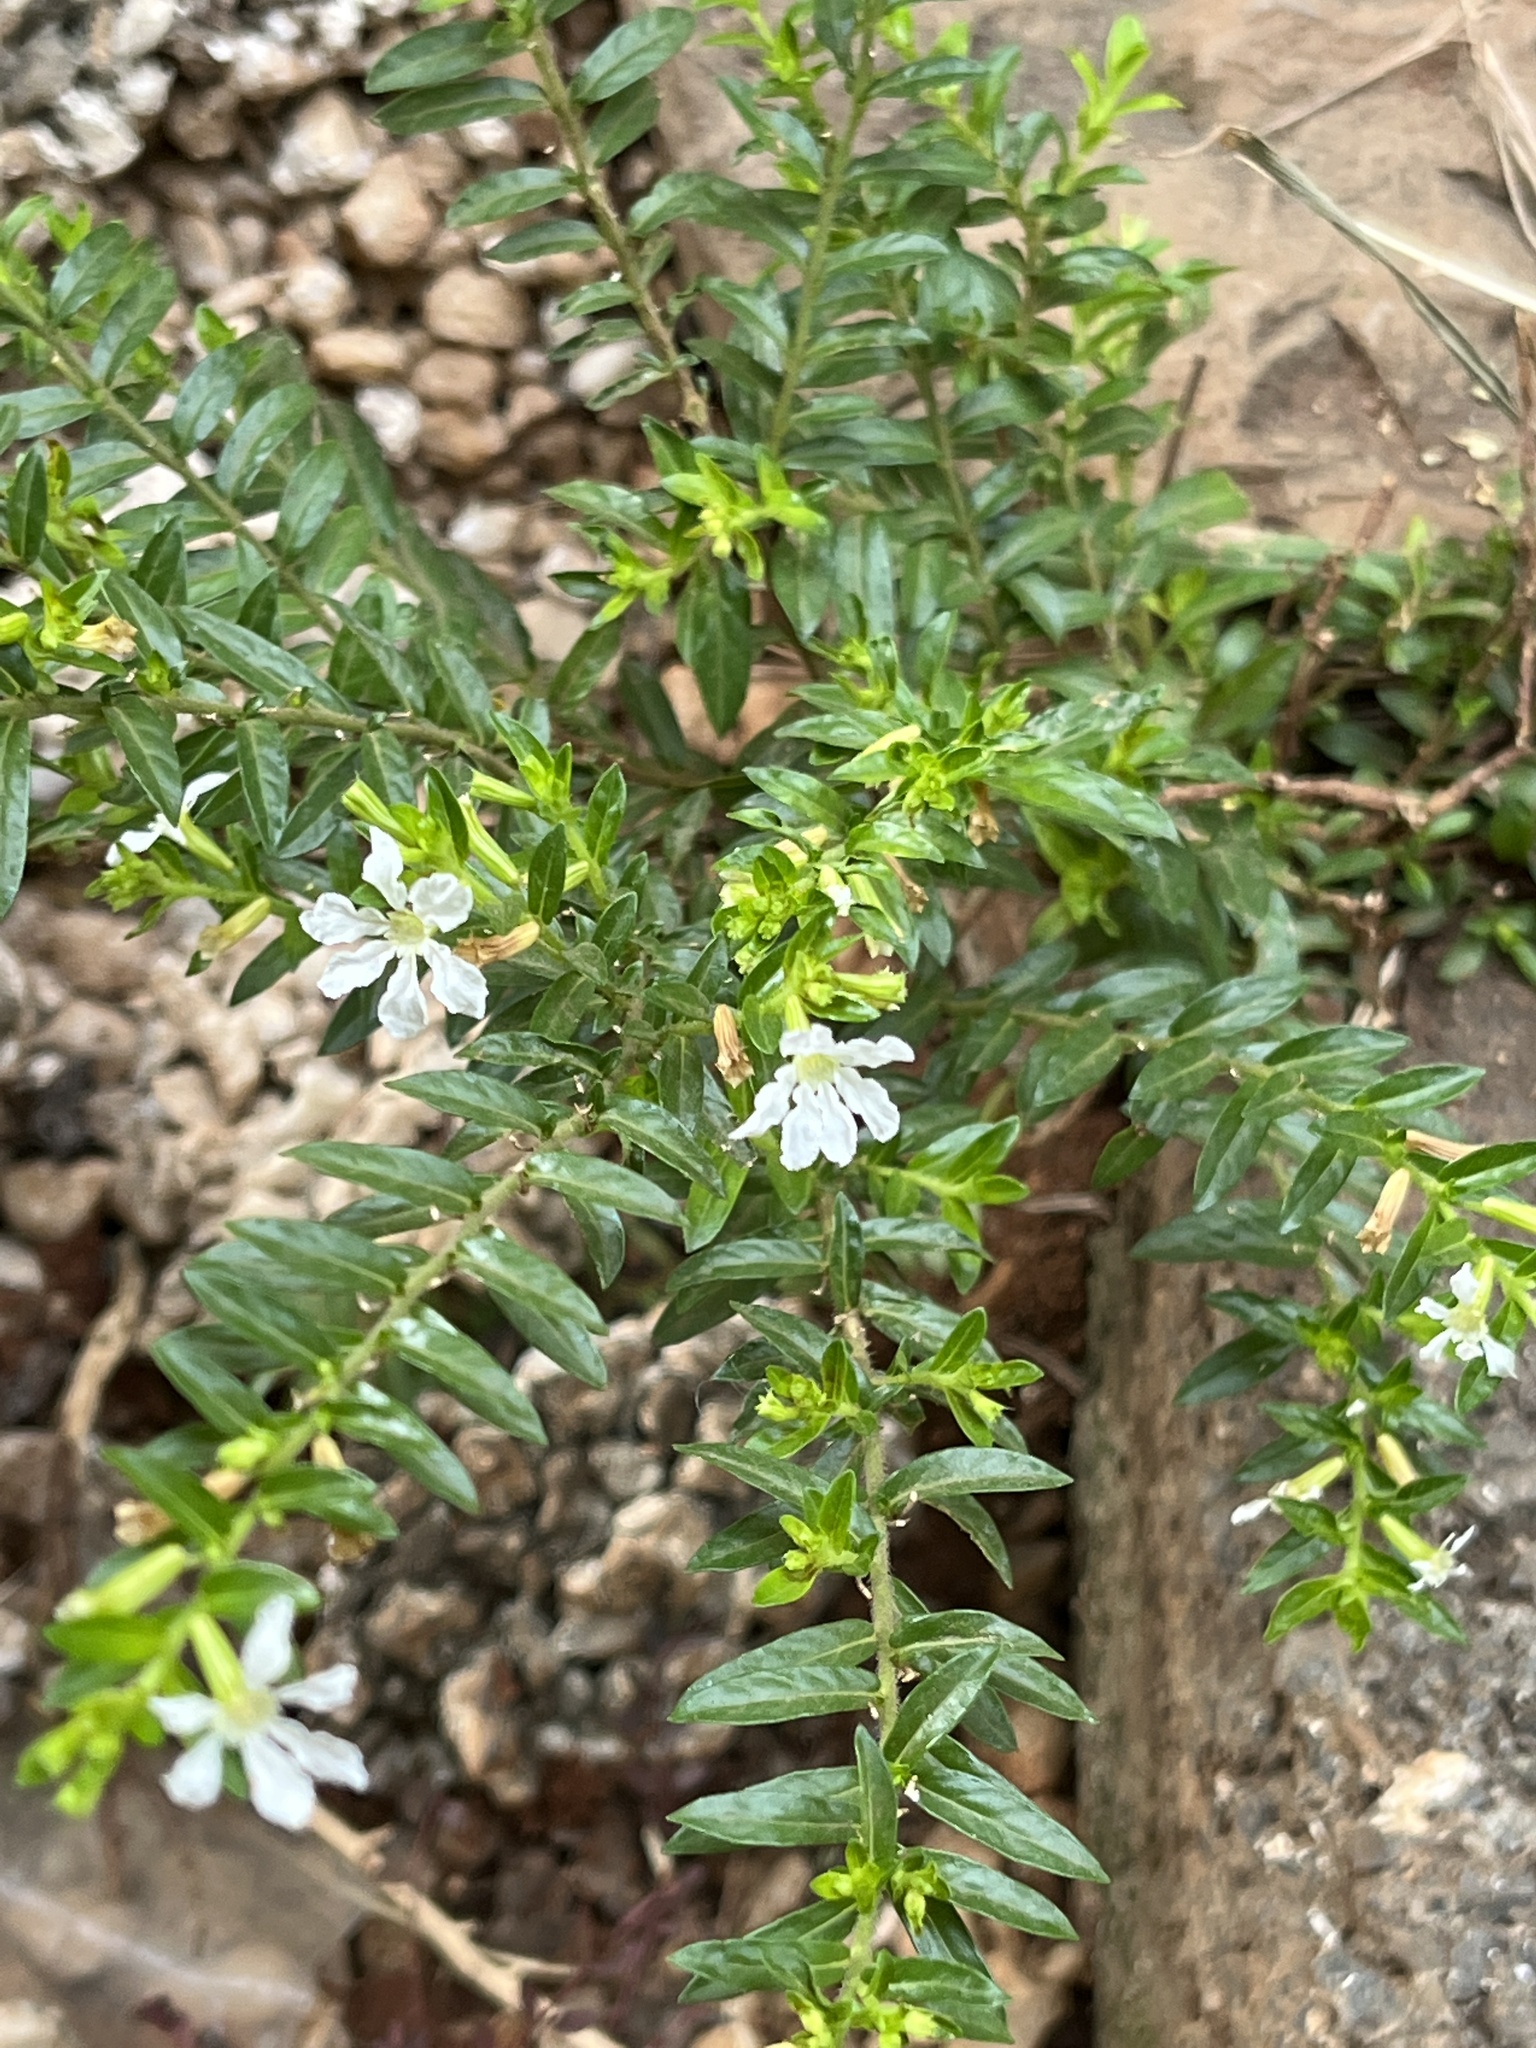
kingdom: Plantae
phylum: Tracheophyta
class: Magnoliopsida
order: Myrtales
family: Lythraceae
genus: Cuphea
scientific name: Cuphea hyssopifolia
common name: False heather
